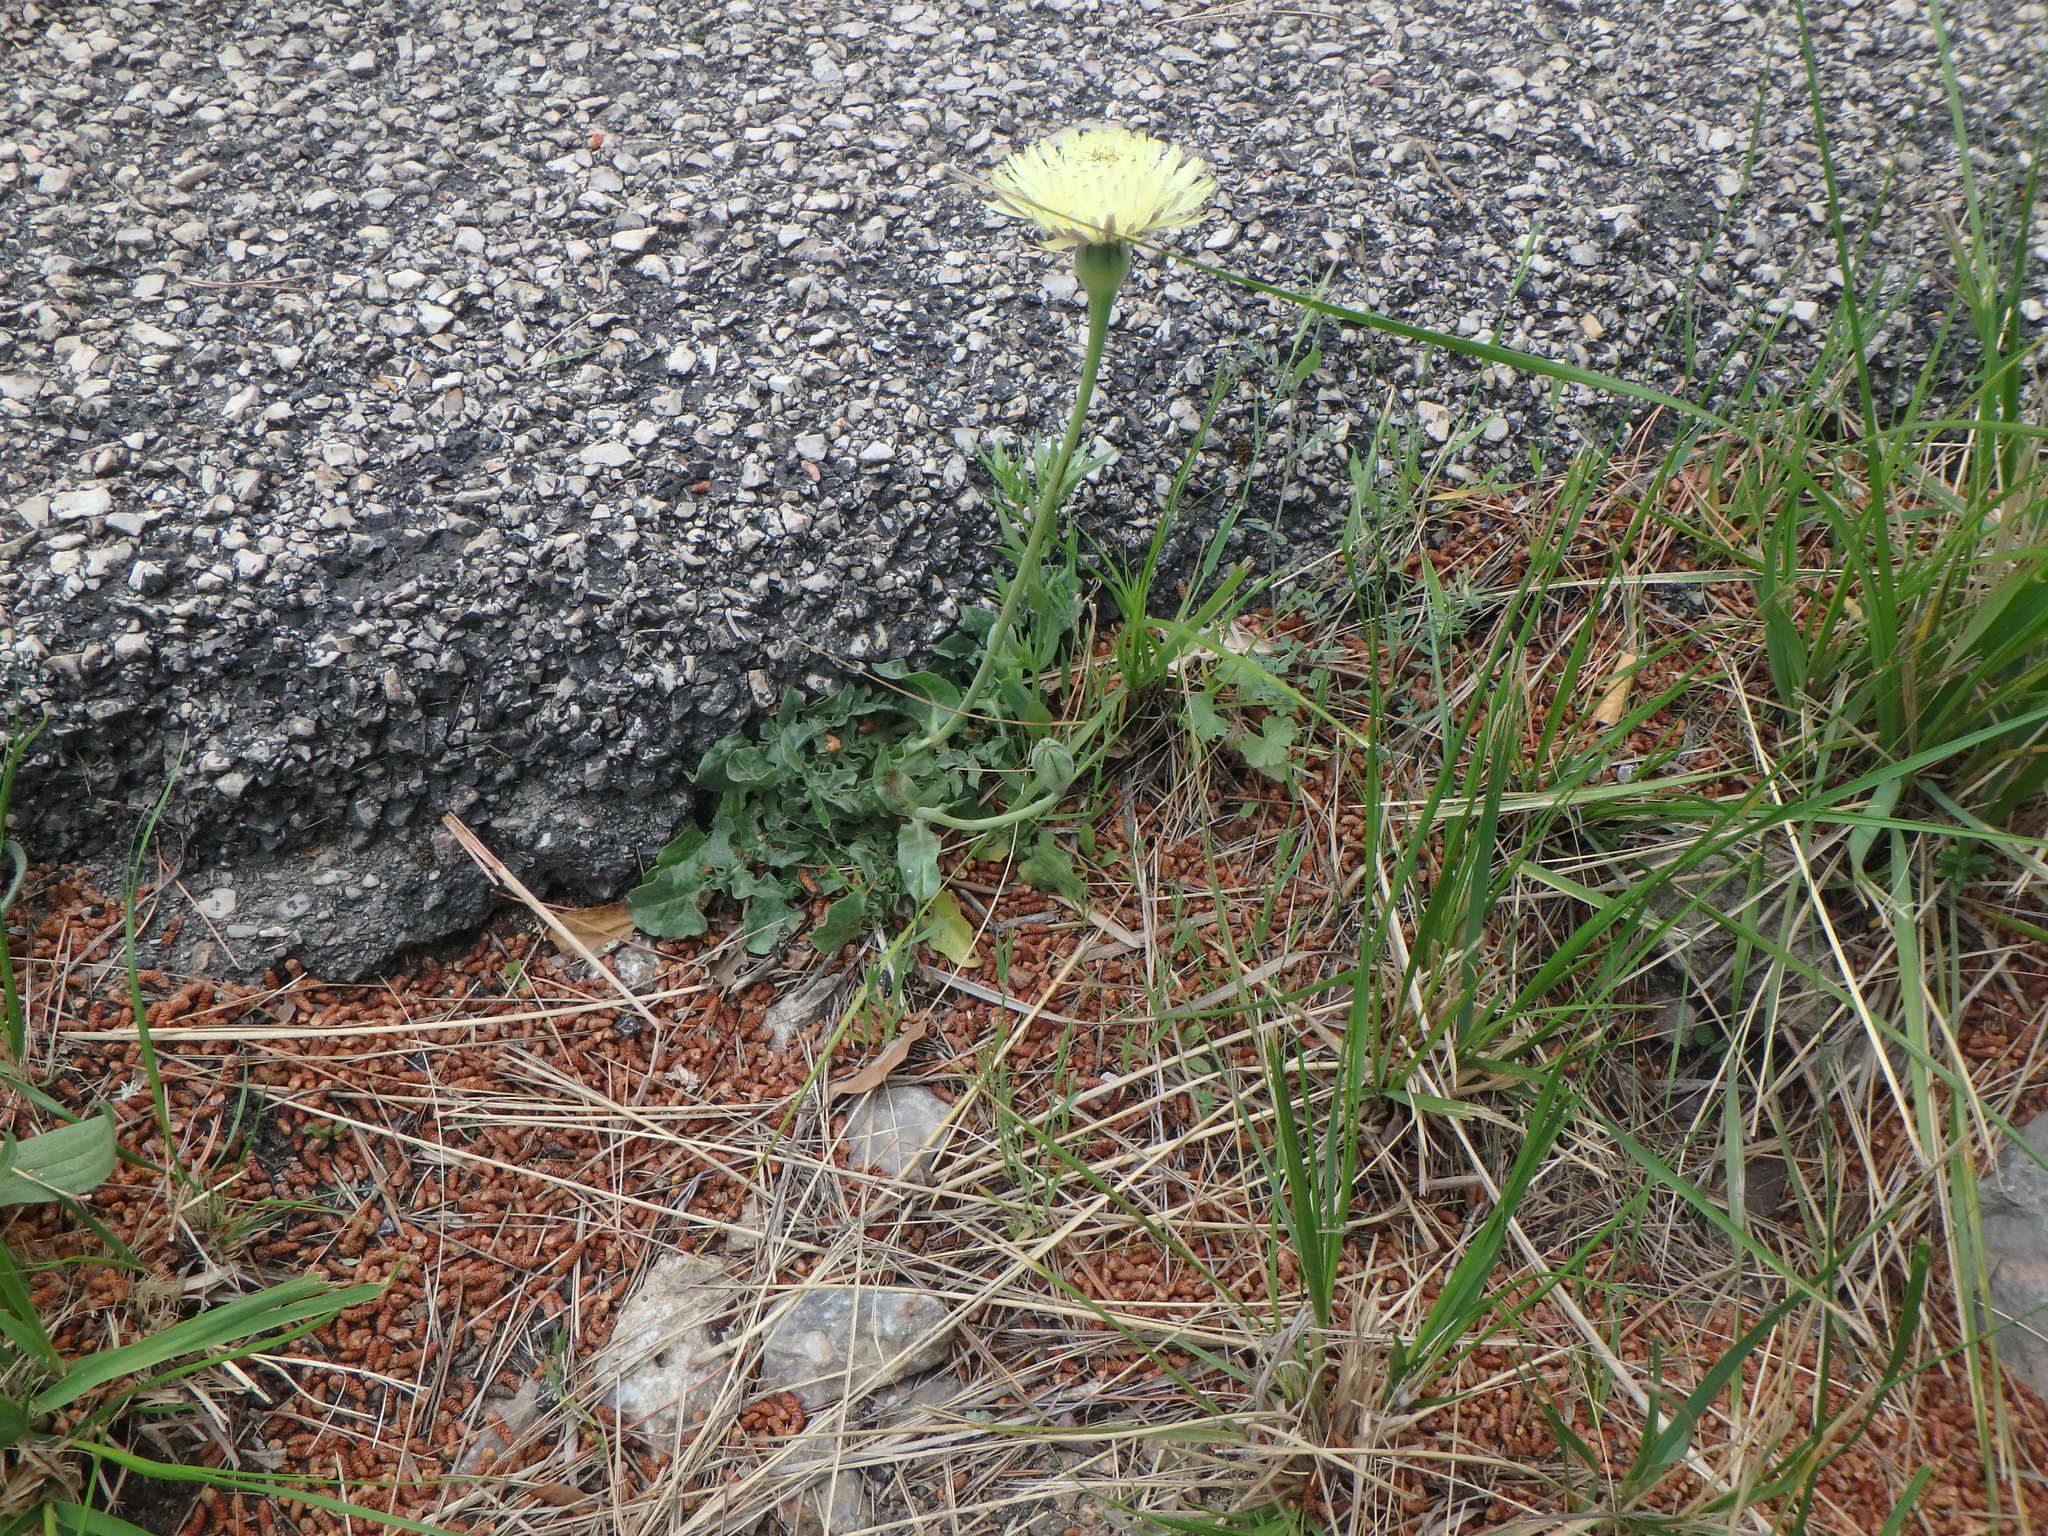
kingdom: Plantae
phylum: Tracheophyta
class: Magnoliopsida
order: Asterales
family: Asteraceae
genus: Urospermum
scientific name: Urospermum dalechampii
